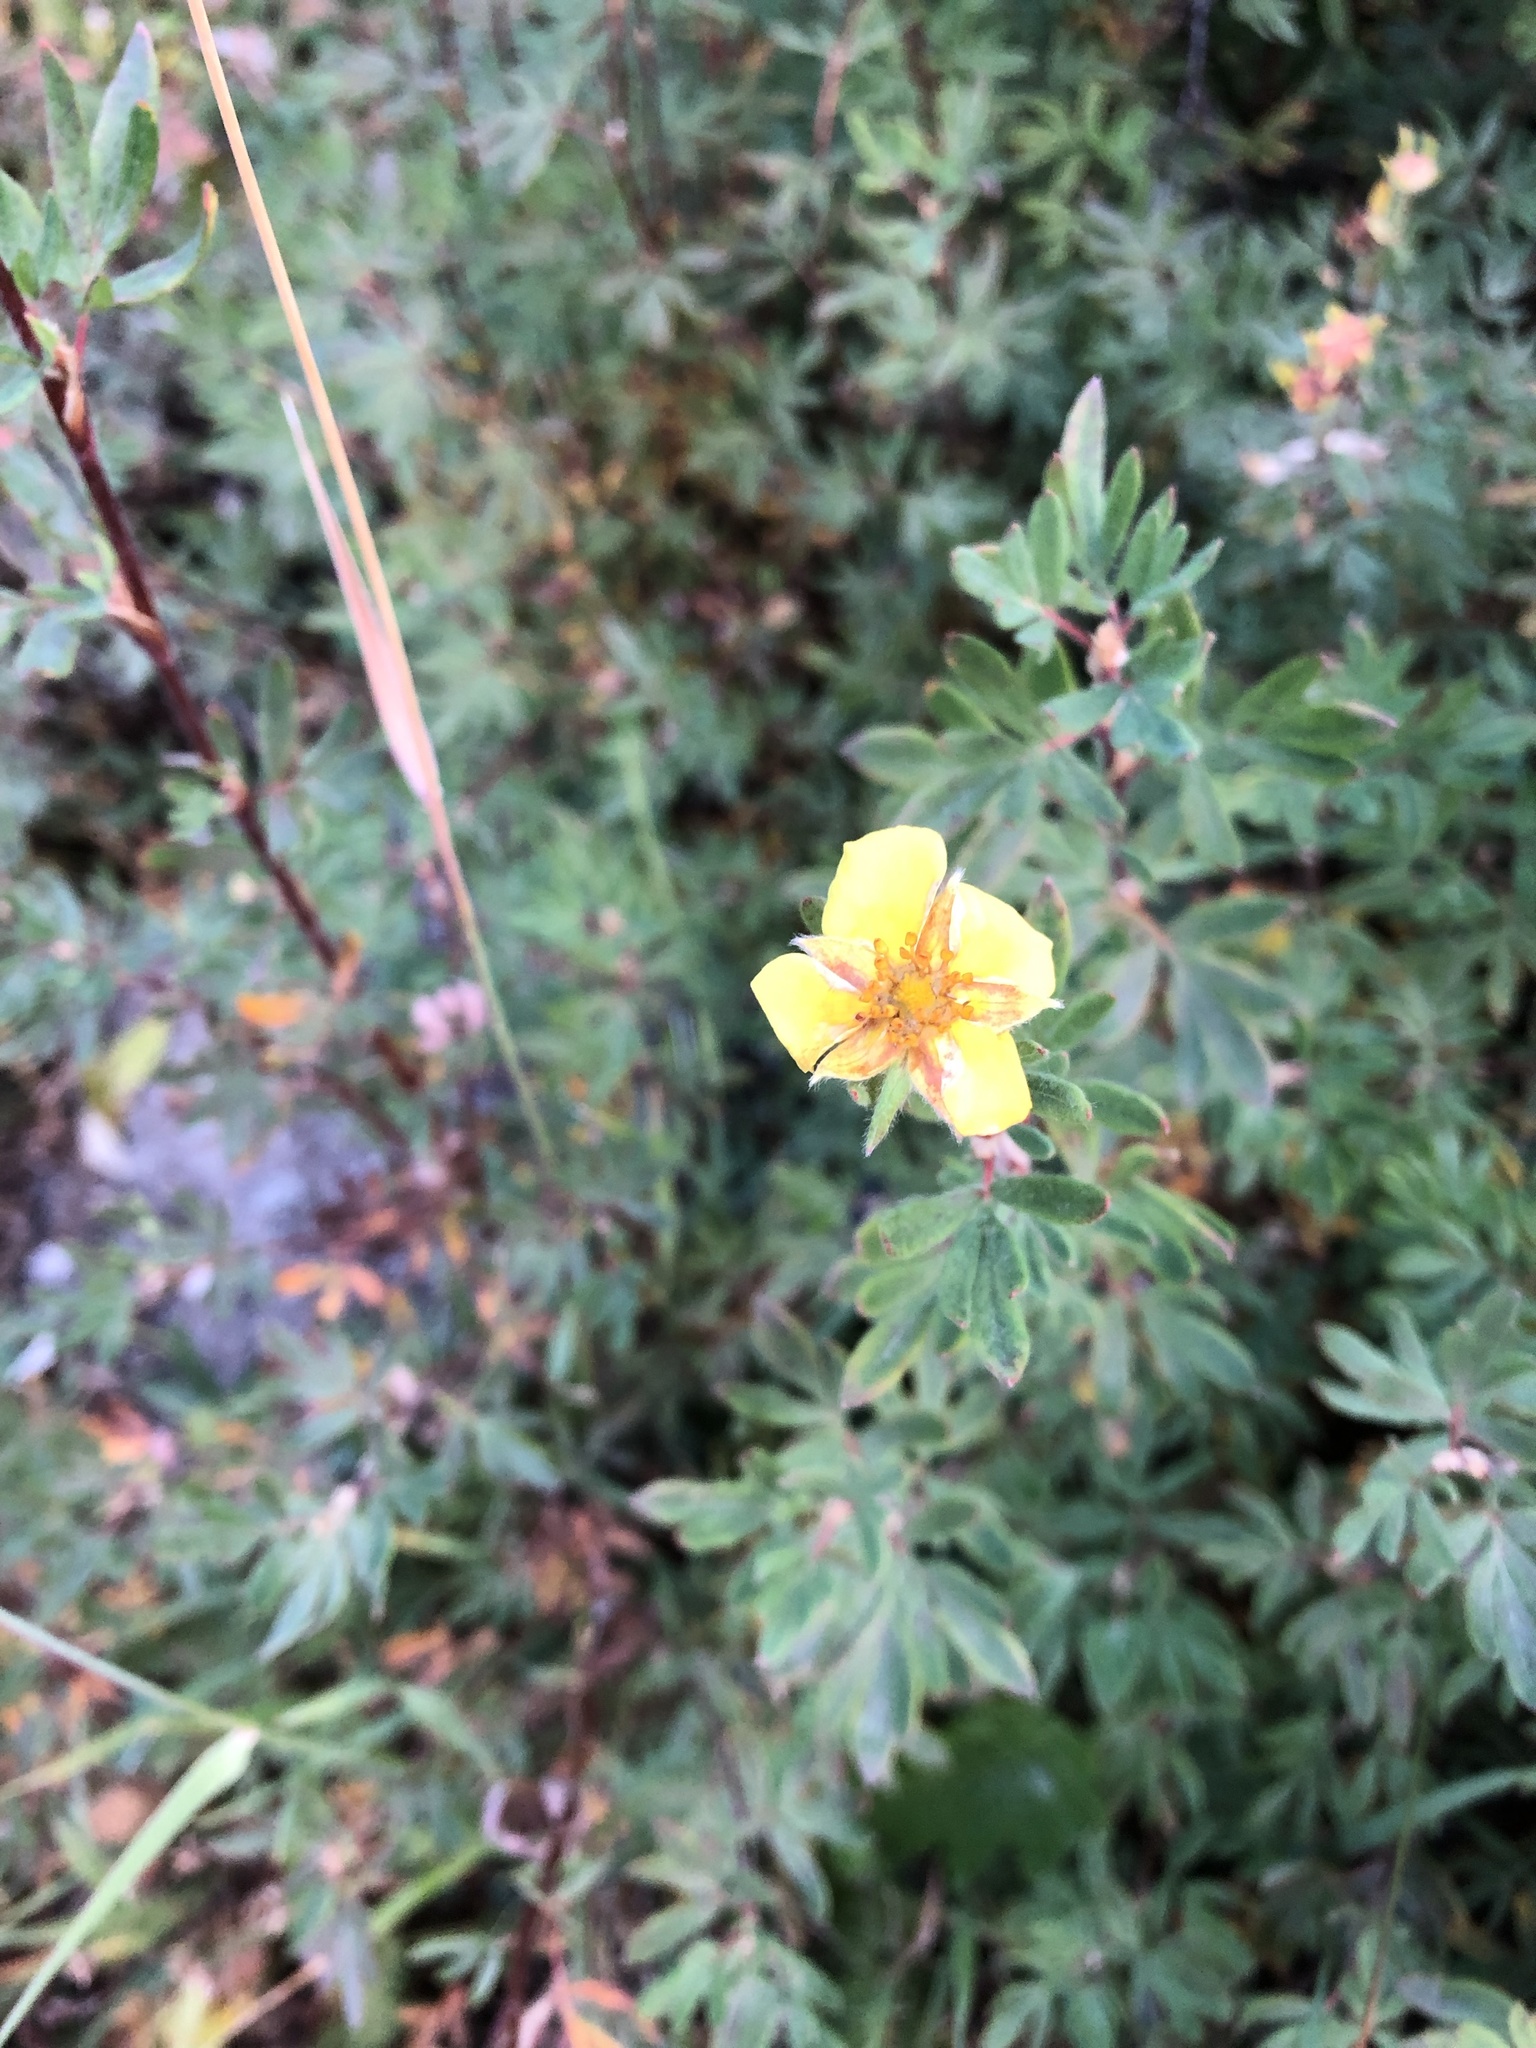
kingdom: Plantae
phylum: Tracheophyta
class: Magnoliopsida
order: Rosales
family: Rosaceae
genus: Dasiphora
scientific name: Dasiphora fruticosa
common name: Shrubby cinquefoil
